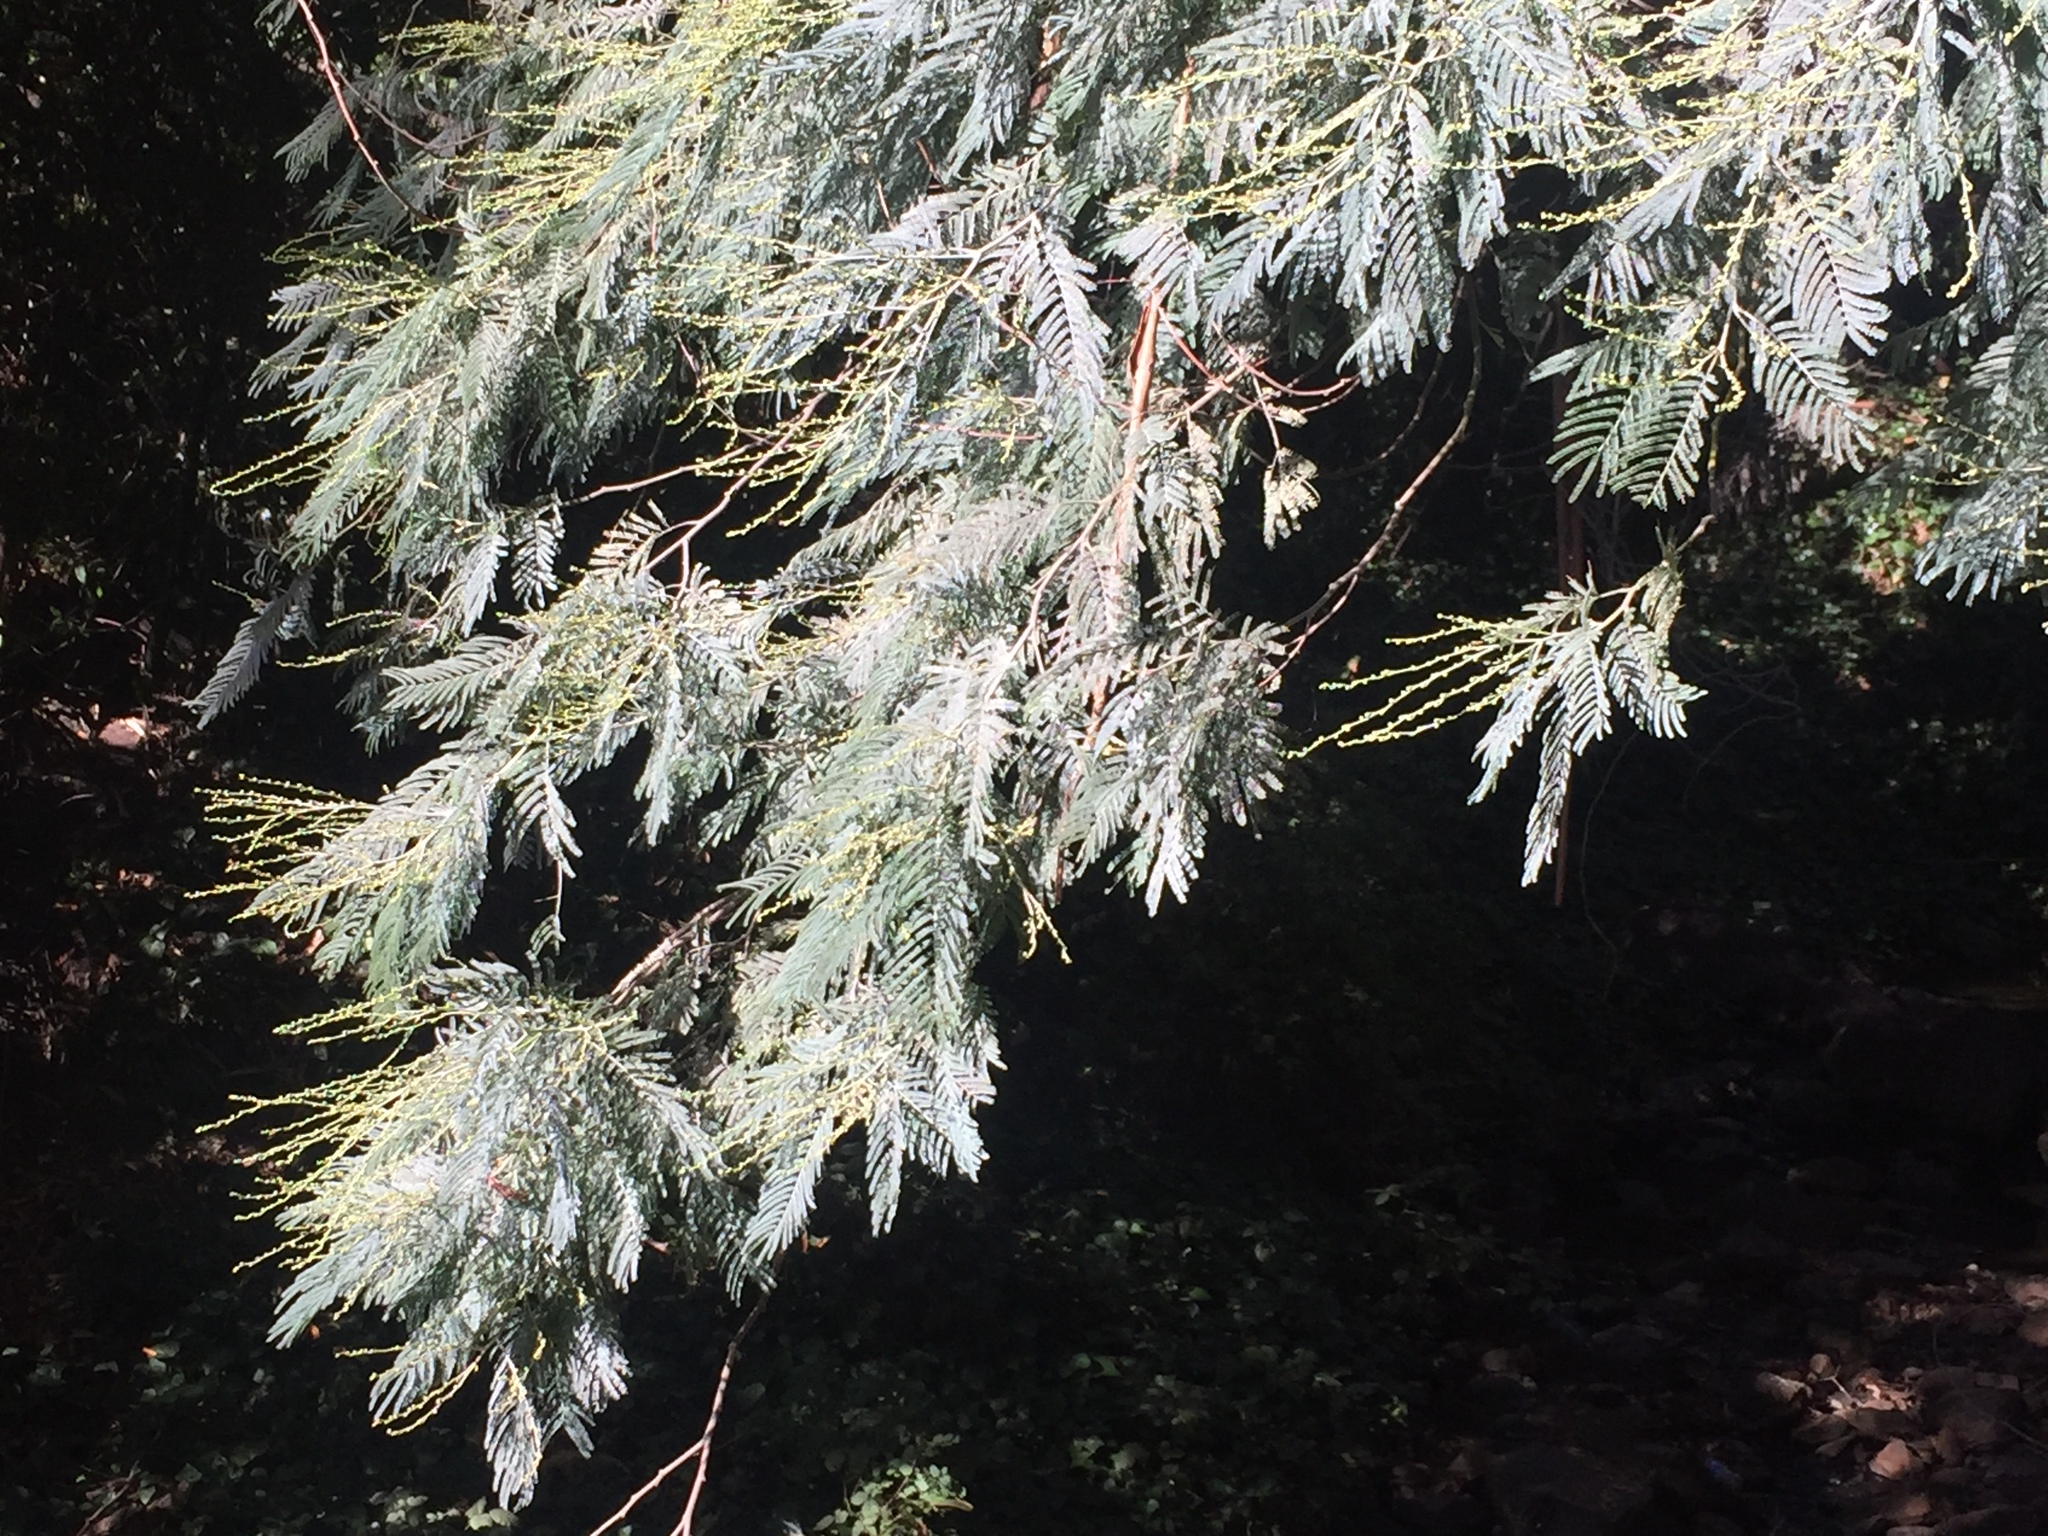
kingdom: Plantae
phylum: Tracheophyta
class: Magnoliopsida
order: Fabales
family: Fabaceae
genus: Acacia
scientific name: Acacia dealbata
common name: Silver wattle
